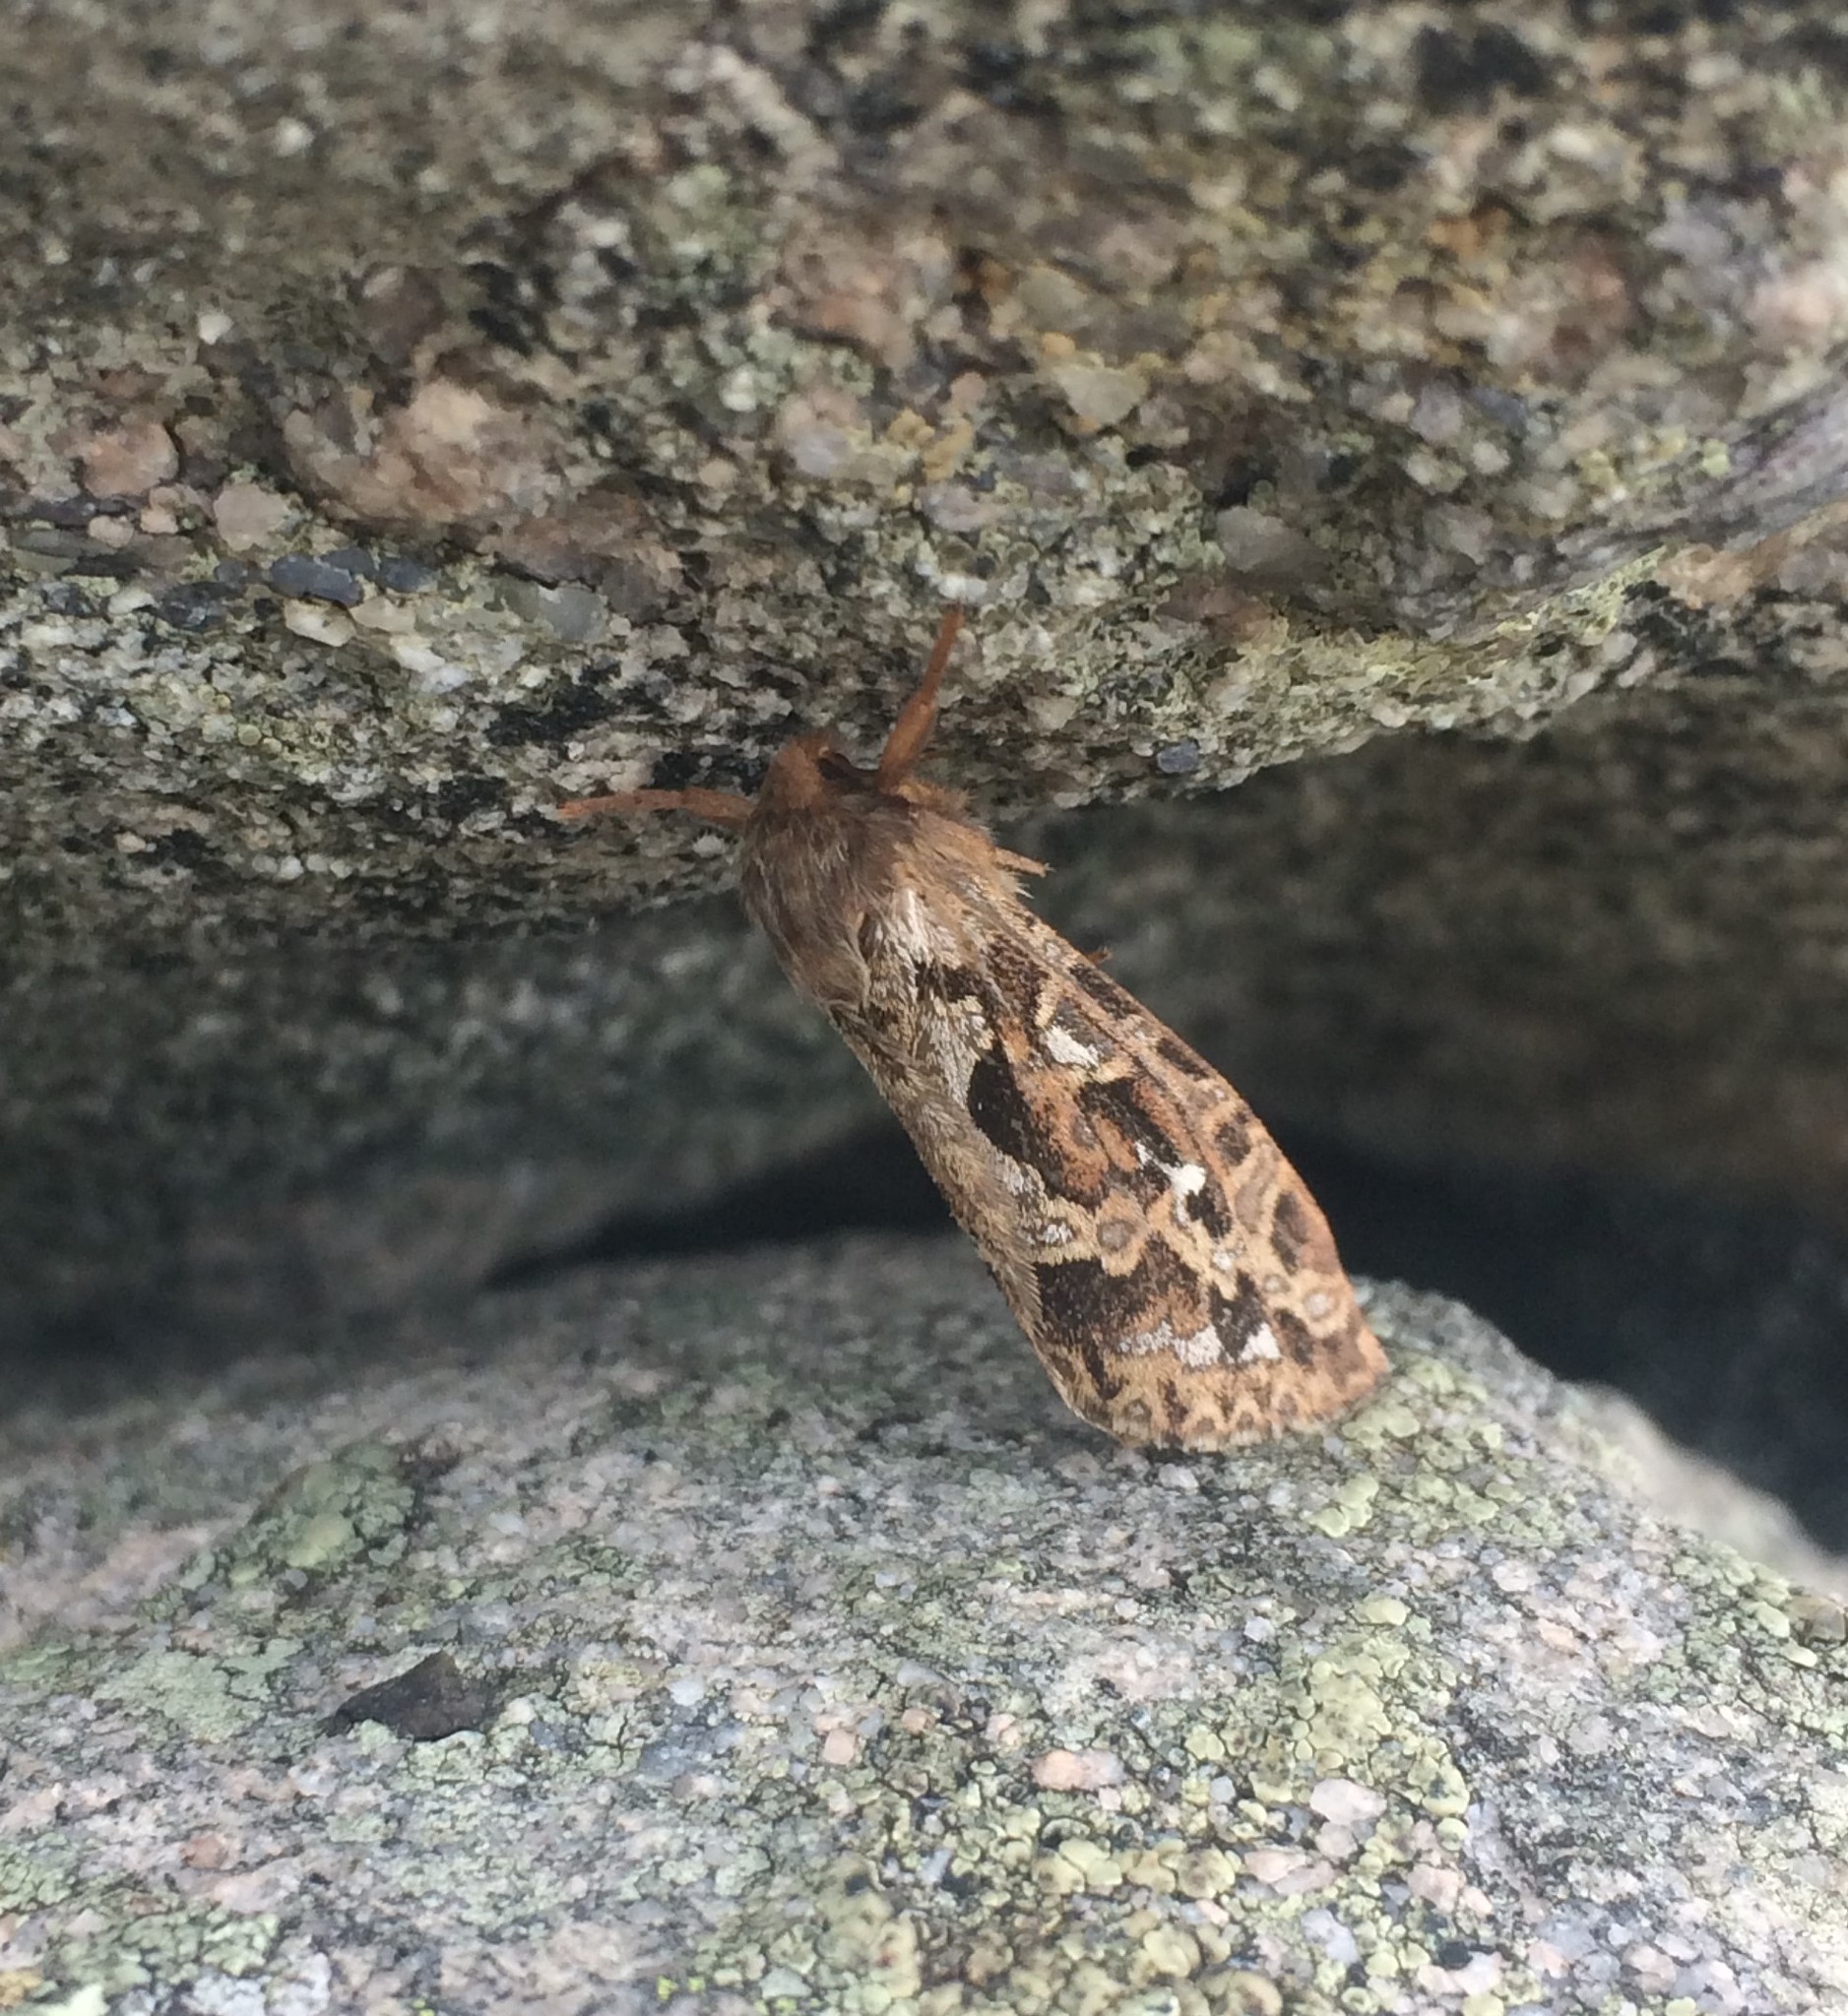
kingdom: Animalia
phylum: Arthropoda
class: Insecta
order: Lepidoptera
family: Hepialidae
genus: Korscheltellus
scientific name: Korscheltellus fusconebulosus
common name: Map-winged swift
